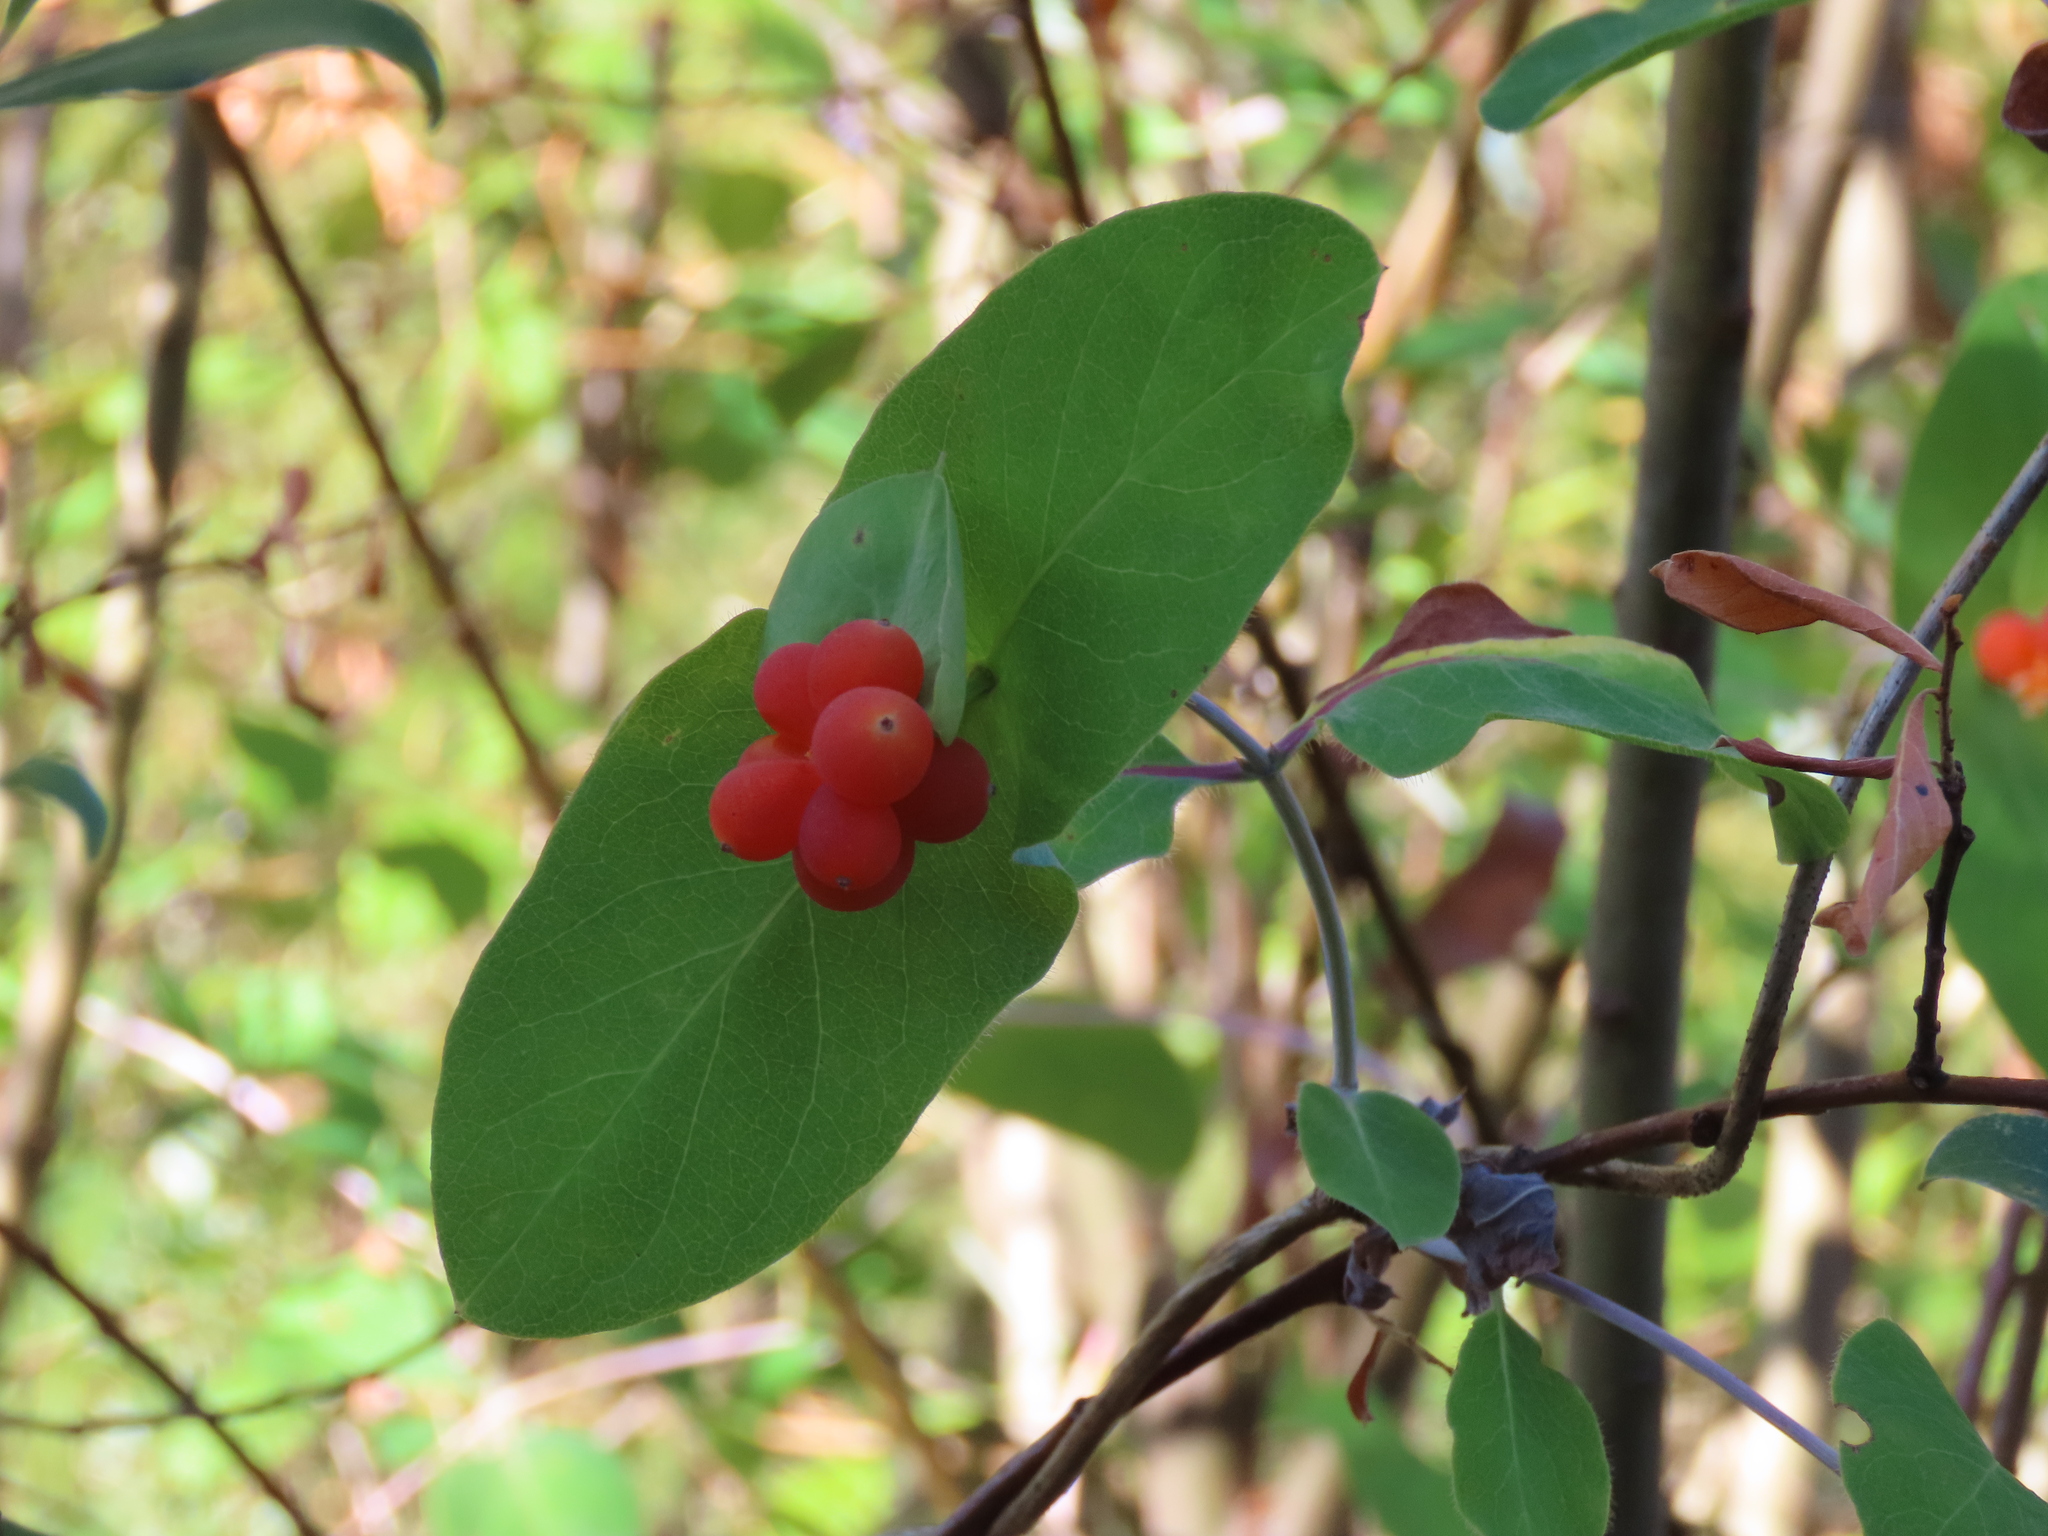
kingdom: Plantae
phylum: Tracheophyta
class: Magnoliopsida
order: Dipsacales
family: Caprifoliaceae
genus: Lonicera
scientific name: Lonicera ciliosa
